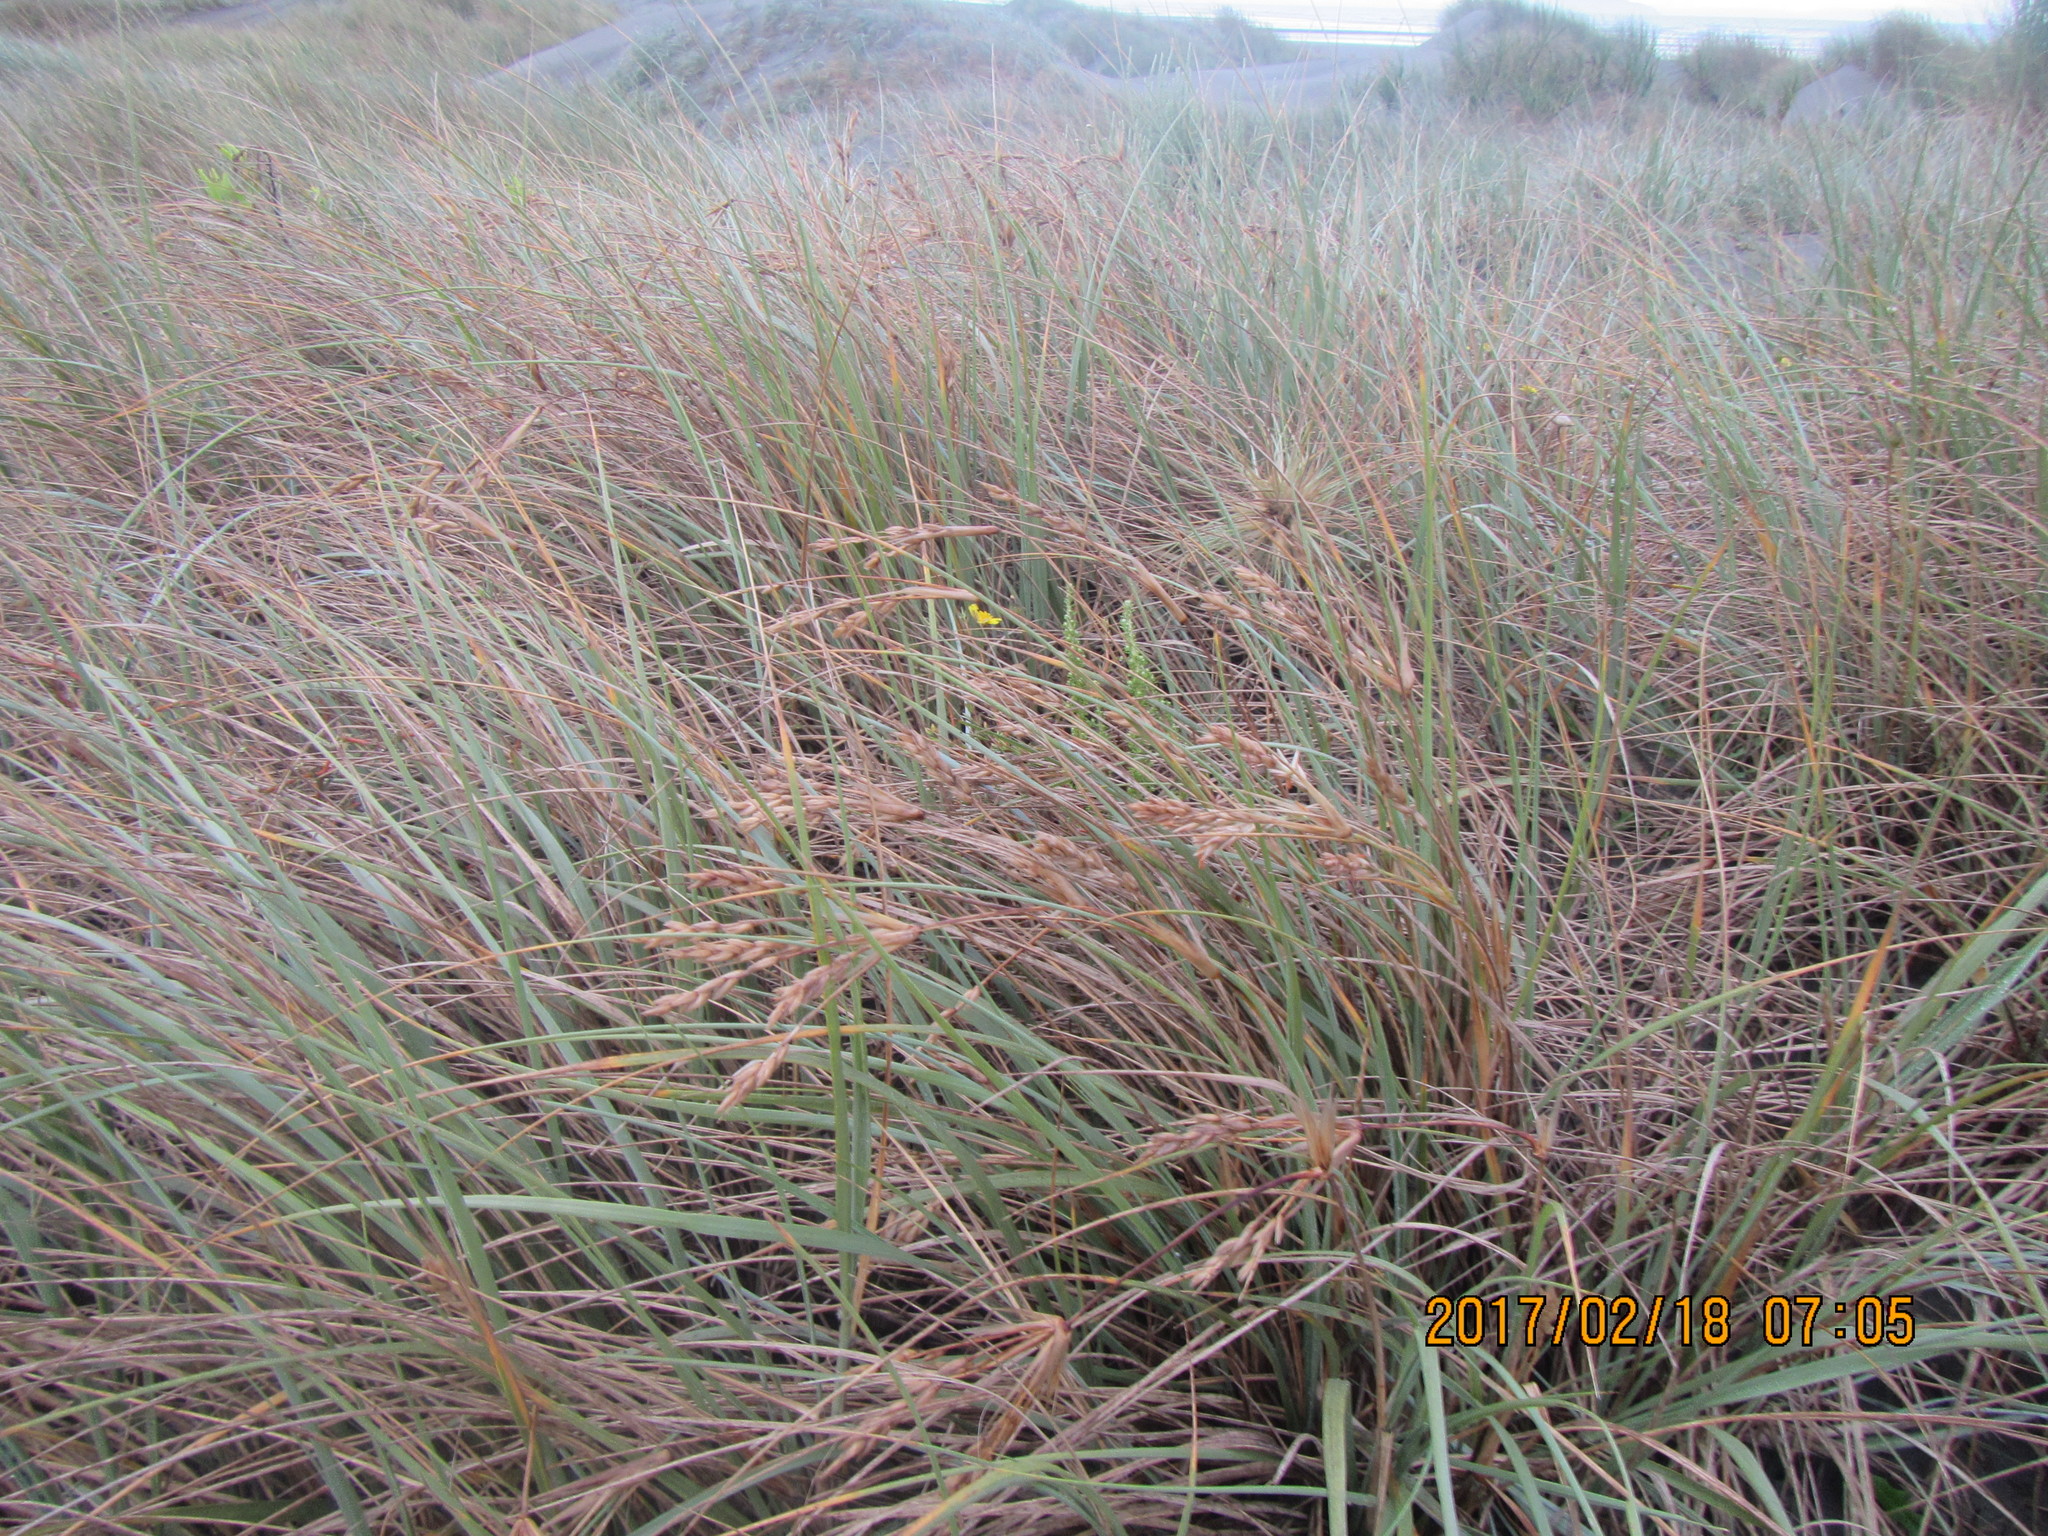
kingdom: Plantae
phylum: Tracheophyta
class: Liliopsida
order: Poales
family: Poaceae
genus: Spinifex
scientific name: Spinifex sericeus
